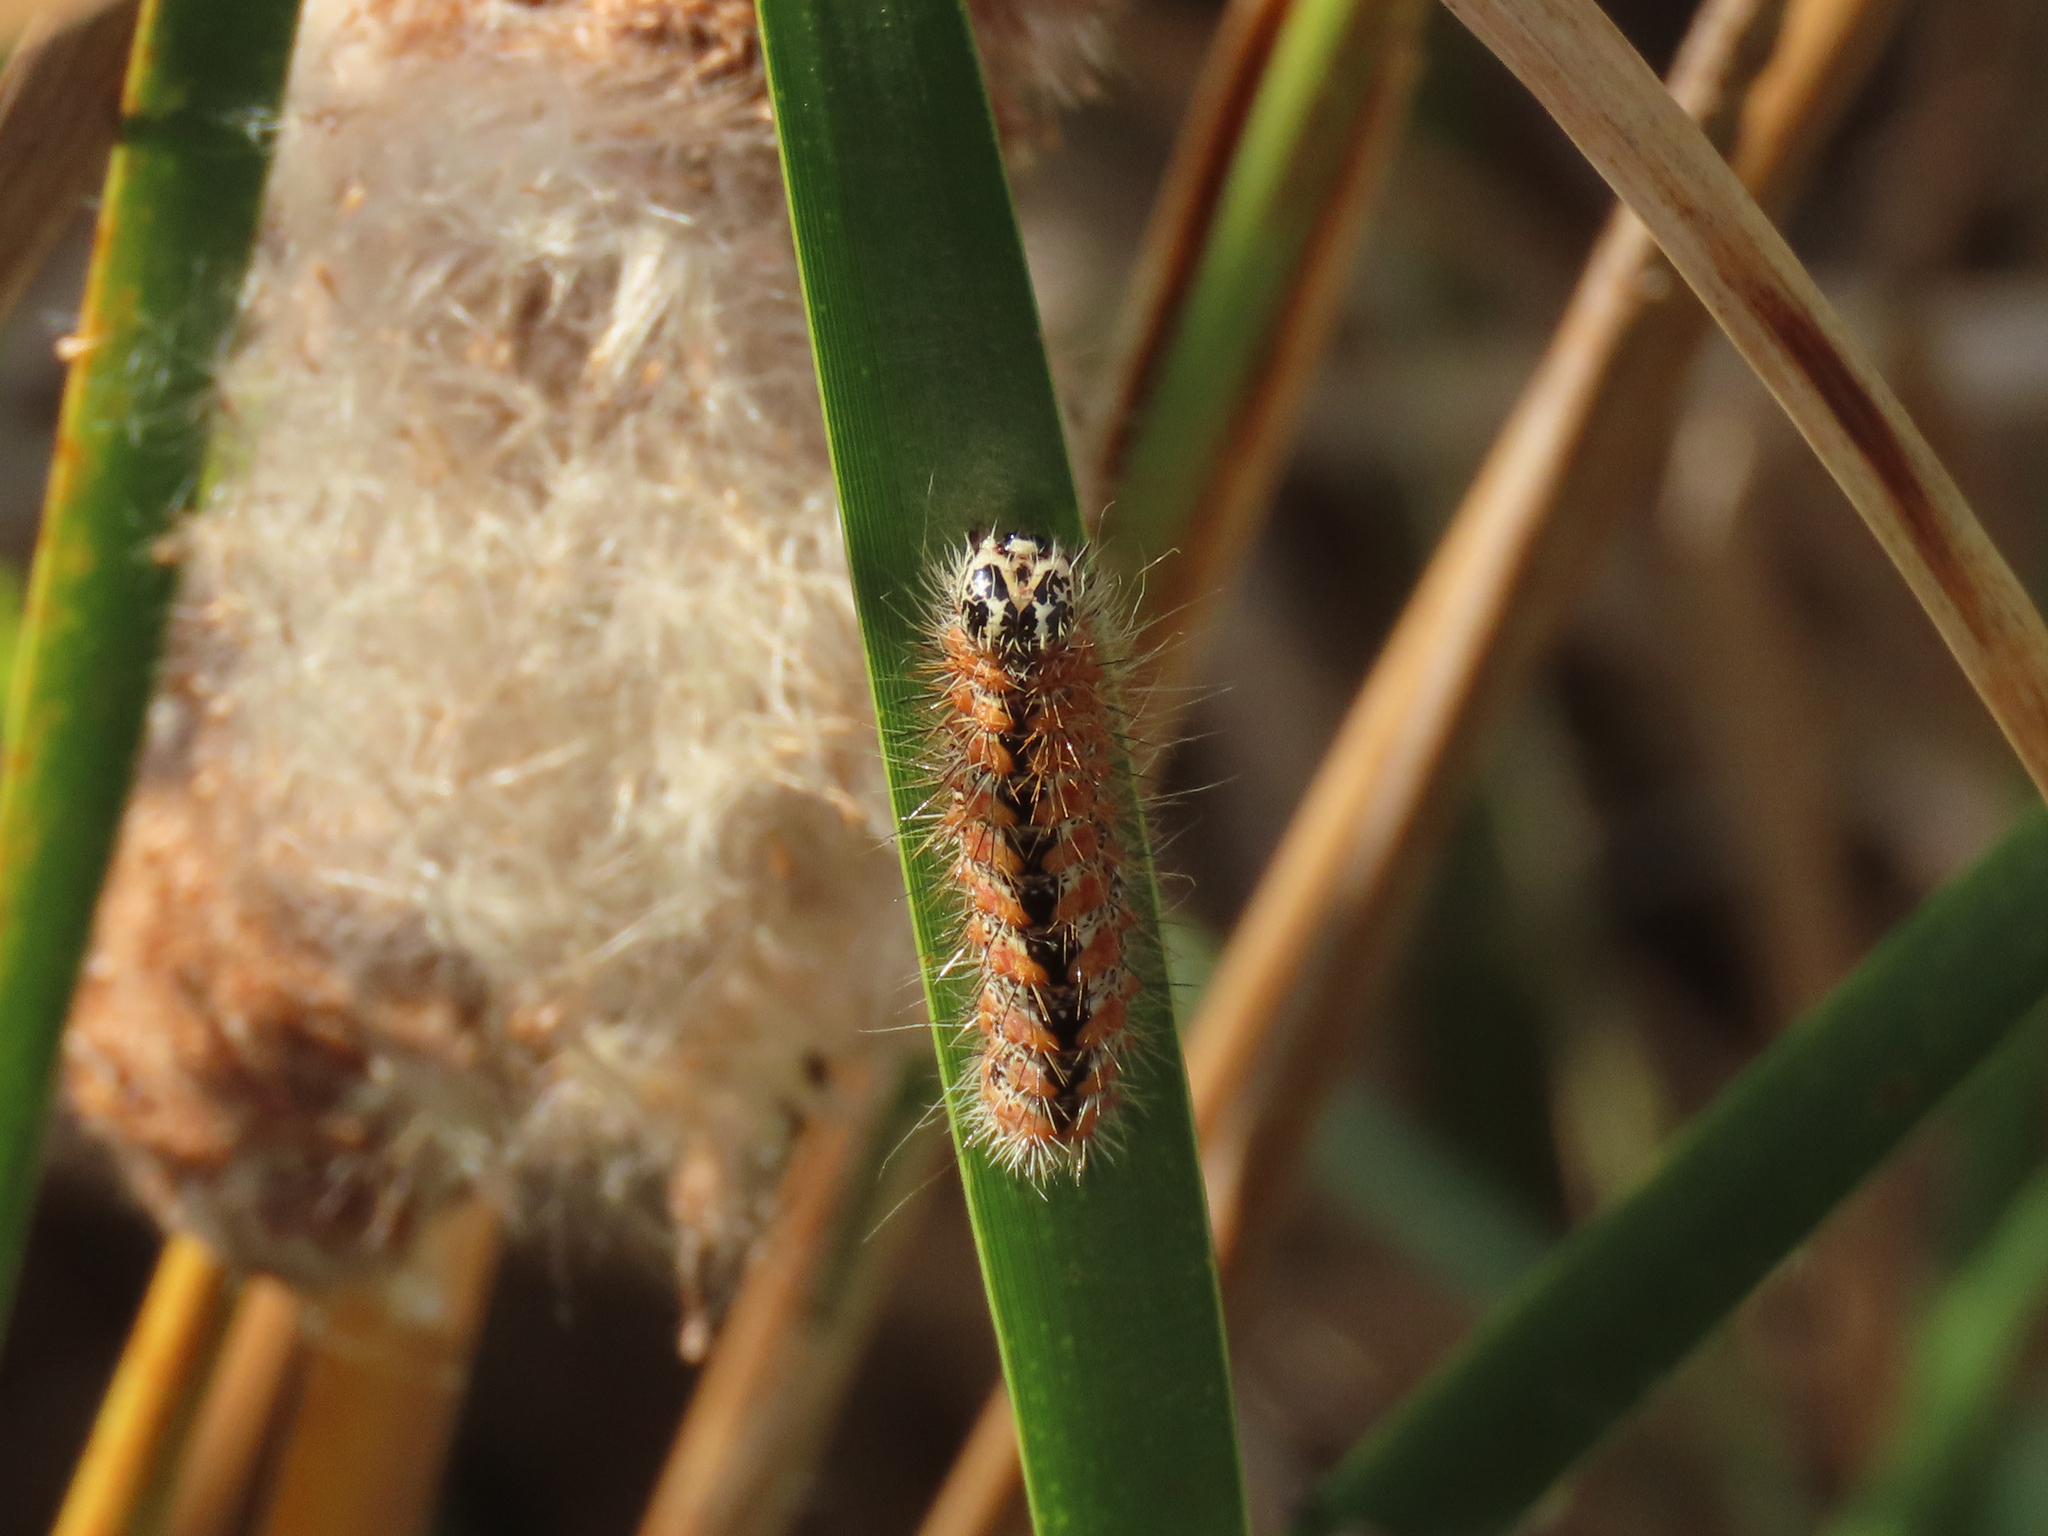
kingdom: Animalia
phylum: Arthropoda
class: Insecta
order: Lepidoptera
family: Noctuidae
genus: Acronicta
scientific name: Acronicta insularis
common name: Henry's marsh moth
